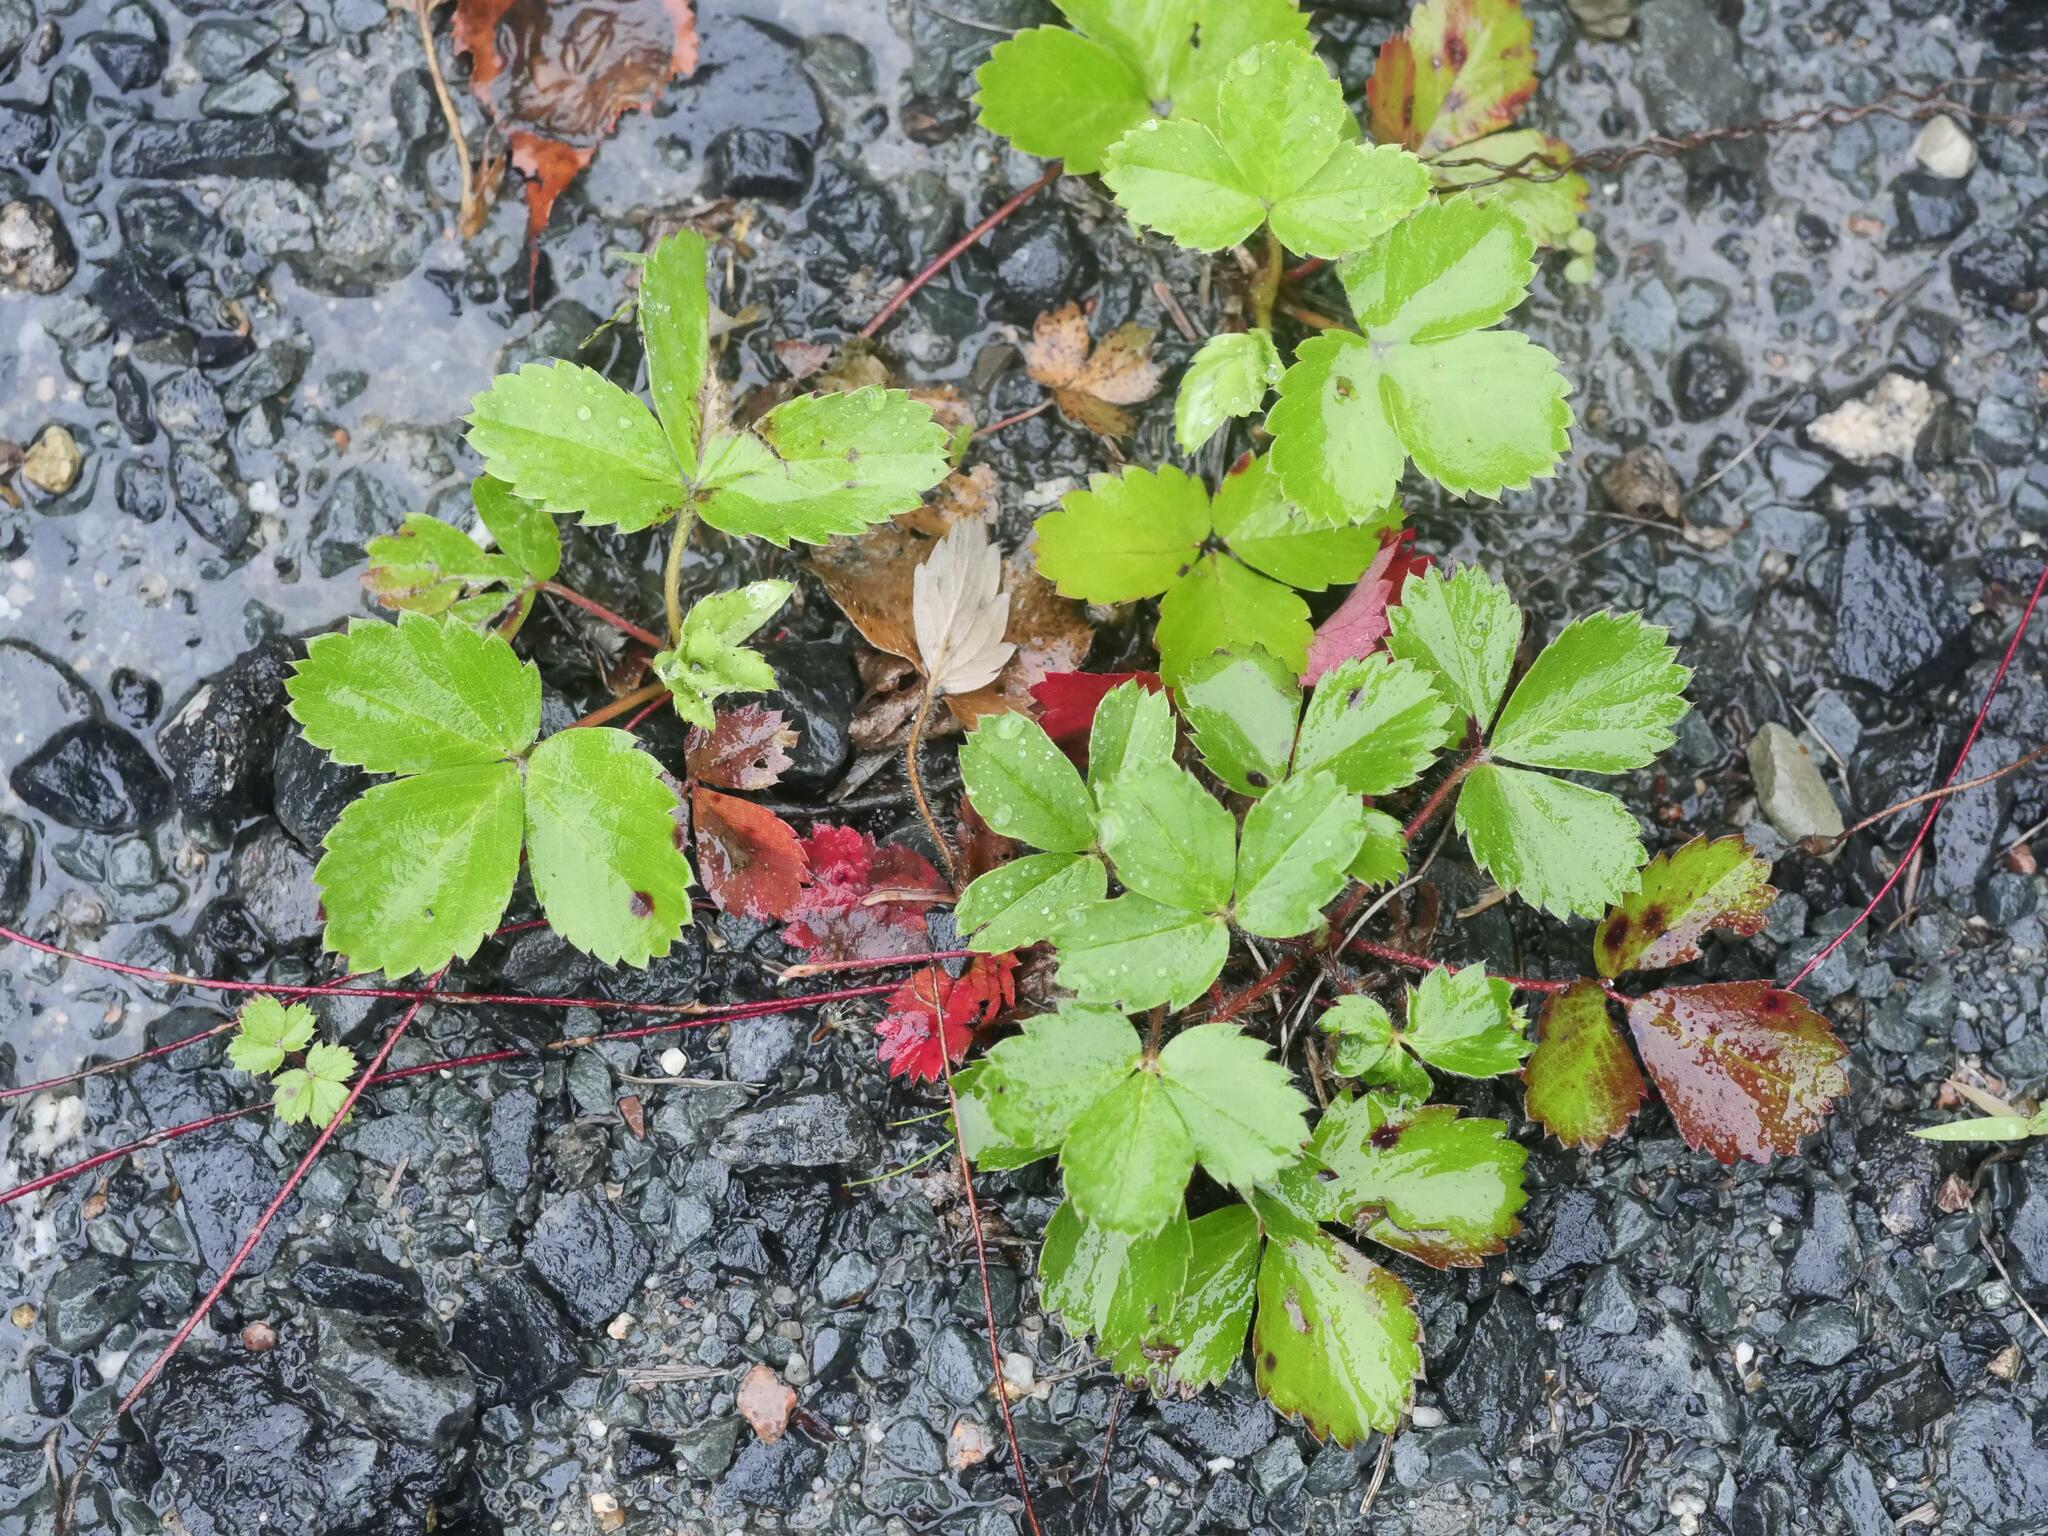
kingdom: Plantae
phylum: Tracheophyta
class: Magnoliopsida
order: Rosales
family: Rosaceae
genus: Fragaria
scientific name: Fragaria virginiana
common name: Thickleaved wild strawberry
